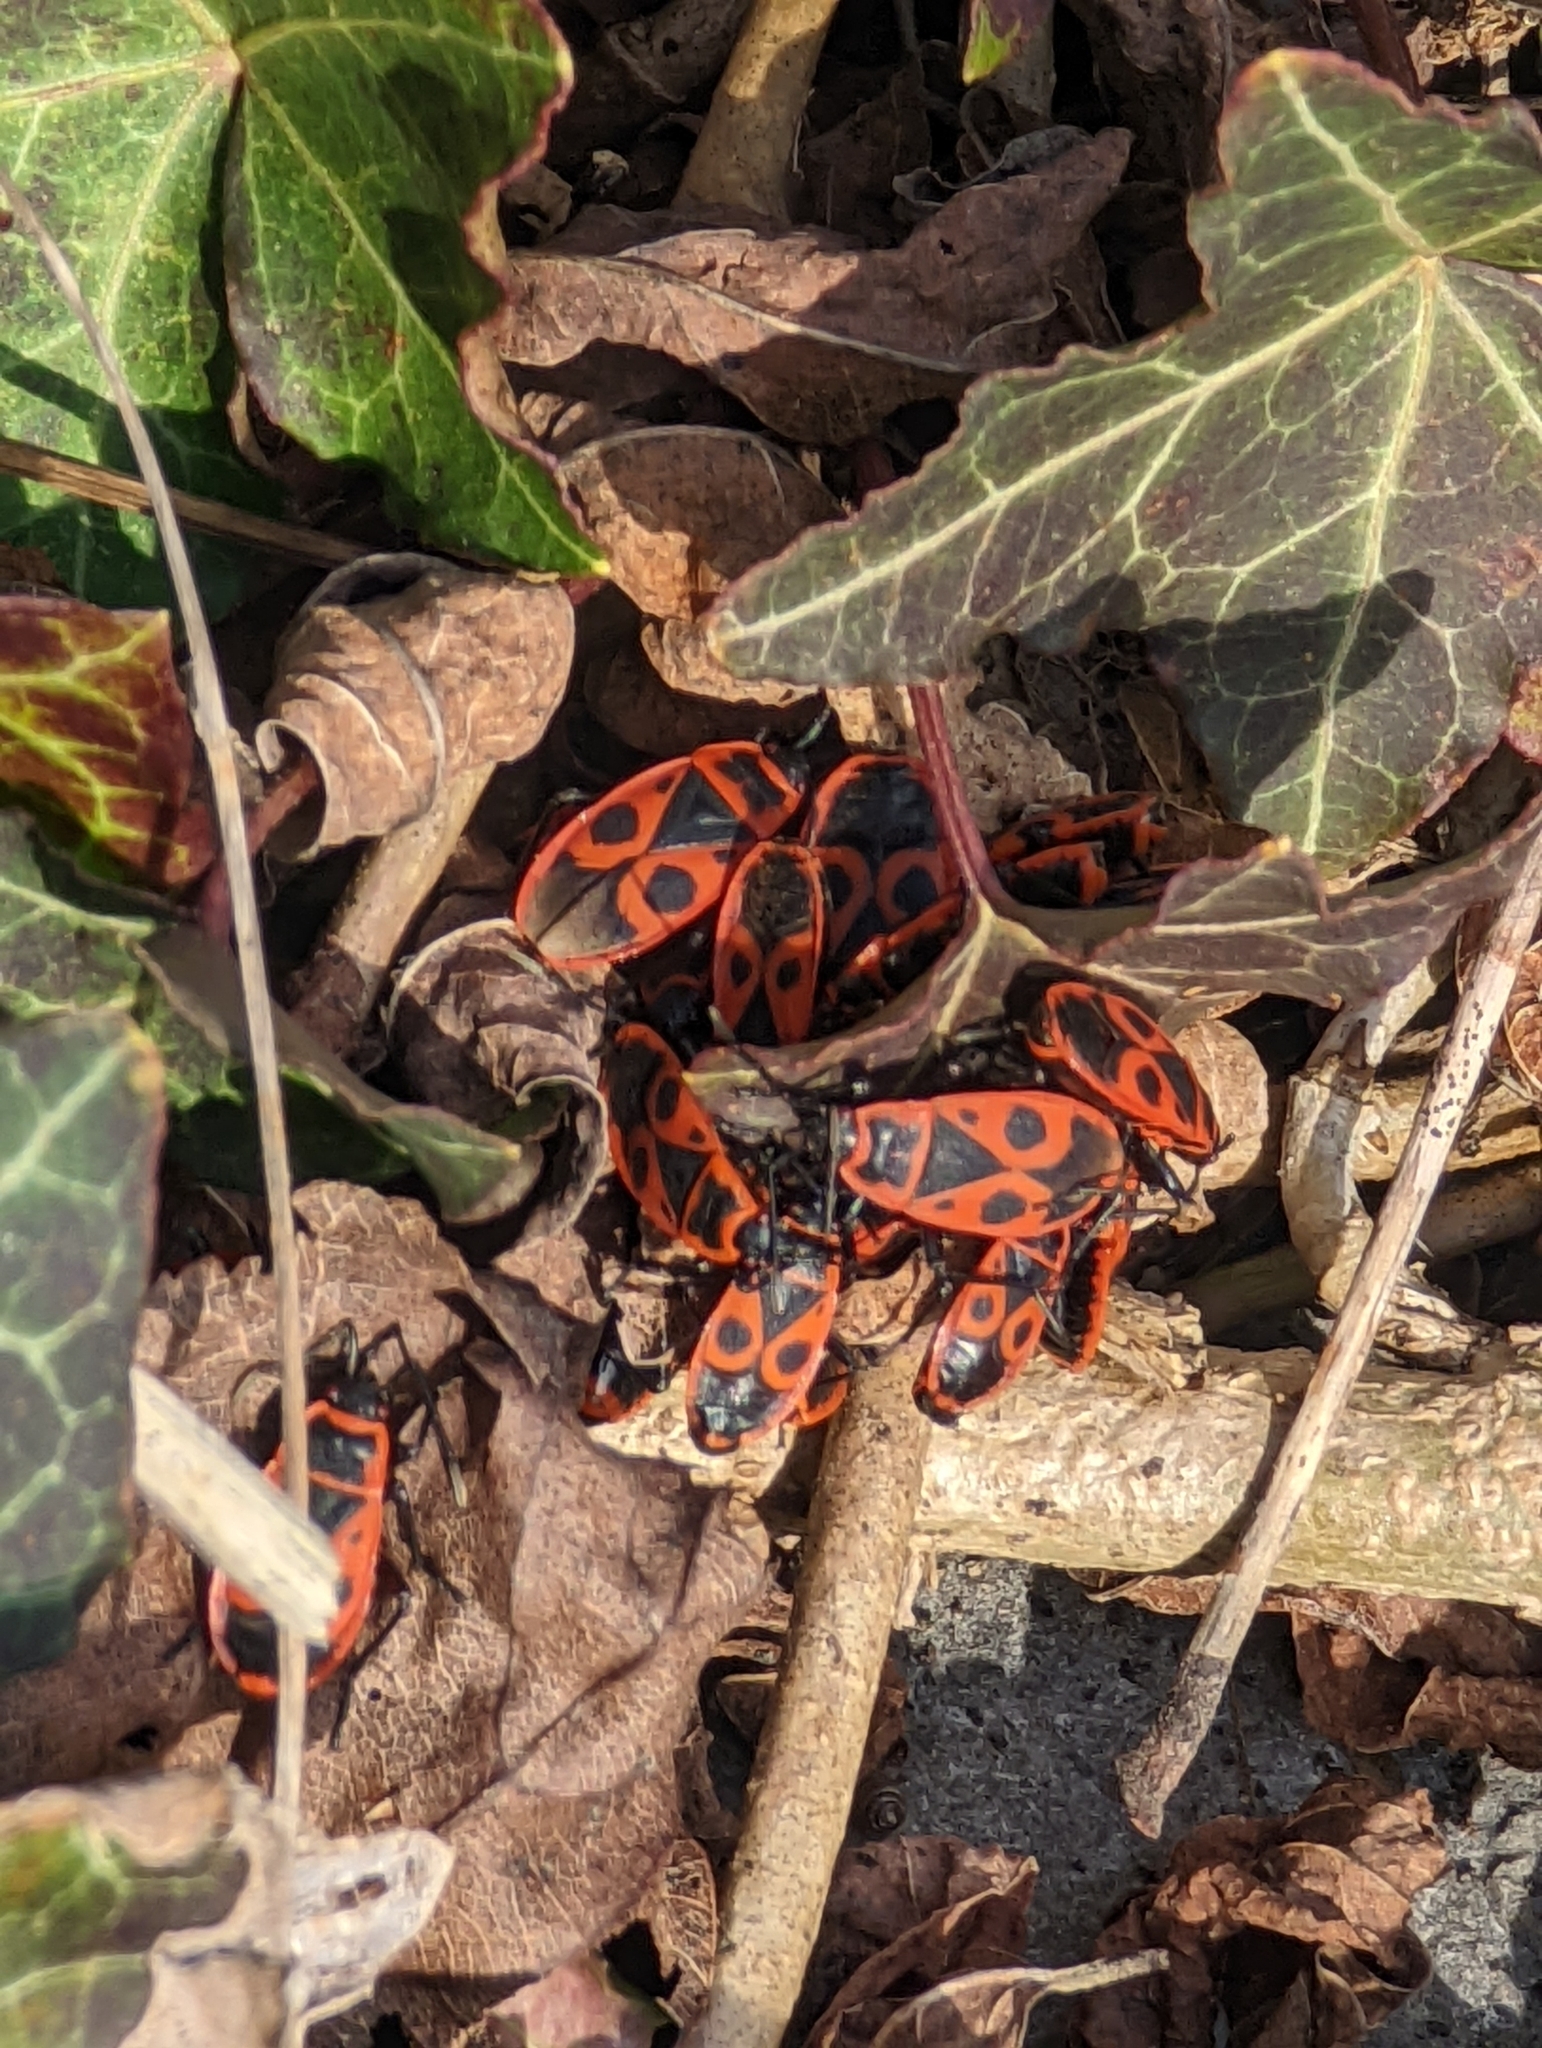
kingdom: Animalia
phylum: Arthropoda
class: Insecta
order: Hemiptera
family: Pyrrhocoridae
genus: Pyrrhocoris
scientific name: Pyrrhocoris apterus
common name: Firebug
